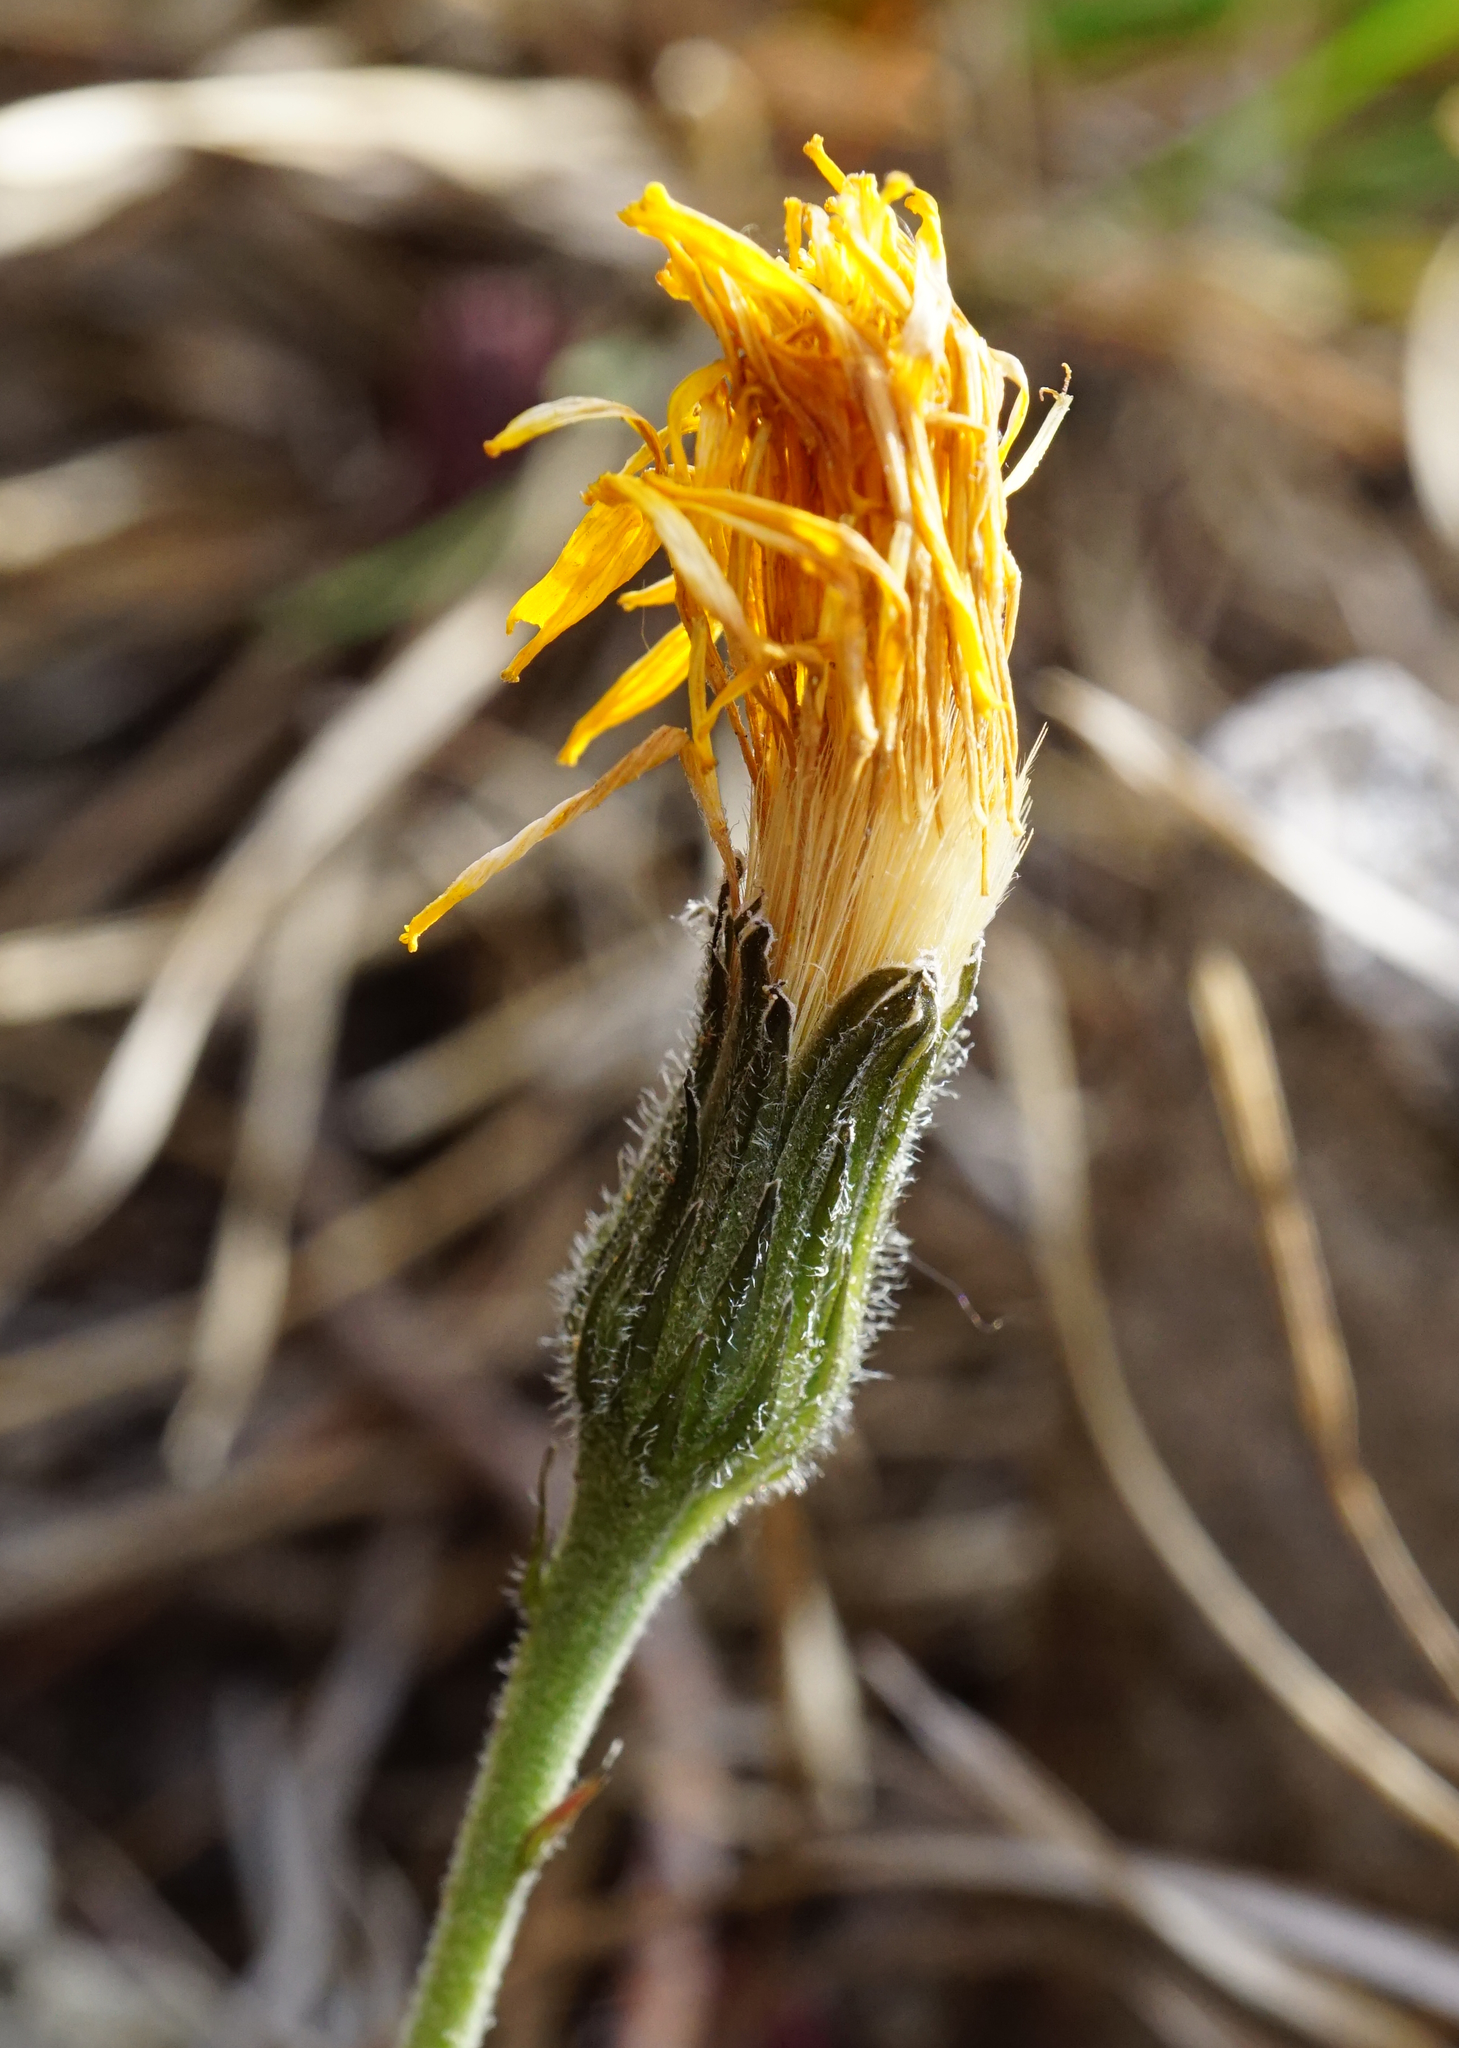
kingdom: Plantae
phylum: Tracheophyta
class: Magnoliopsida
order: Asterales
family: Asteraceae
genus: Leontodon
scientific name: Leontodon incanus
